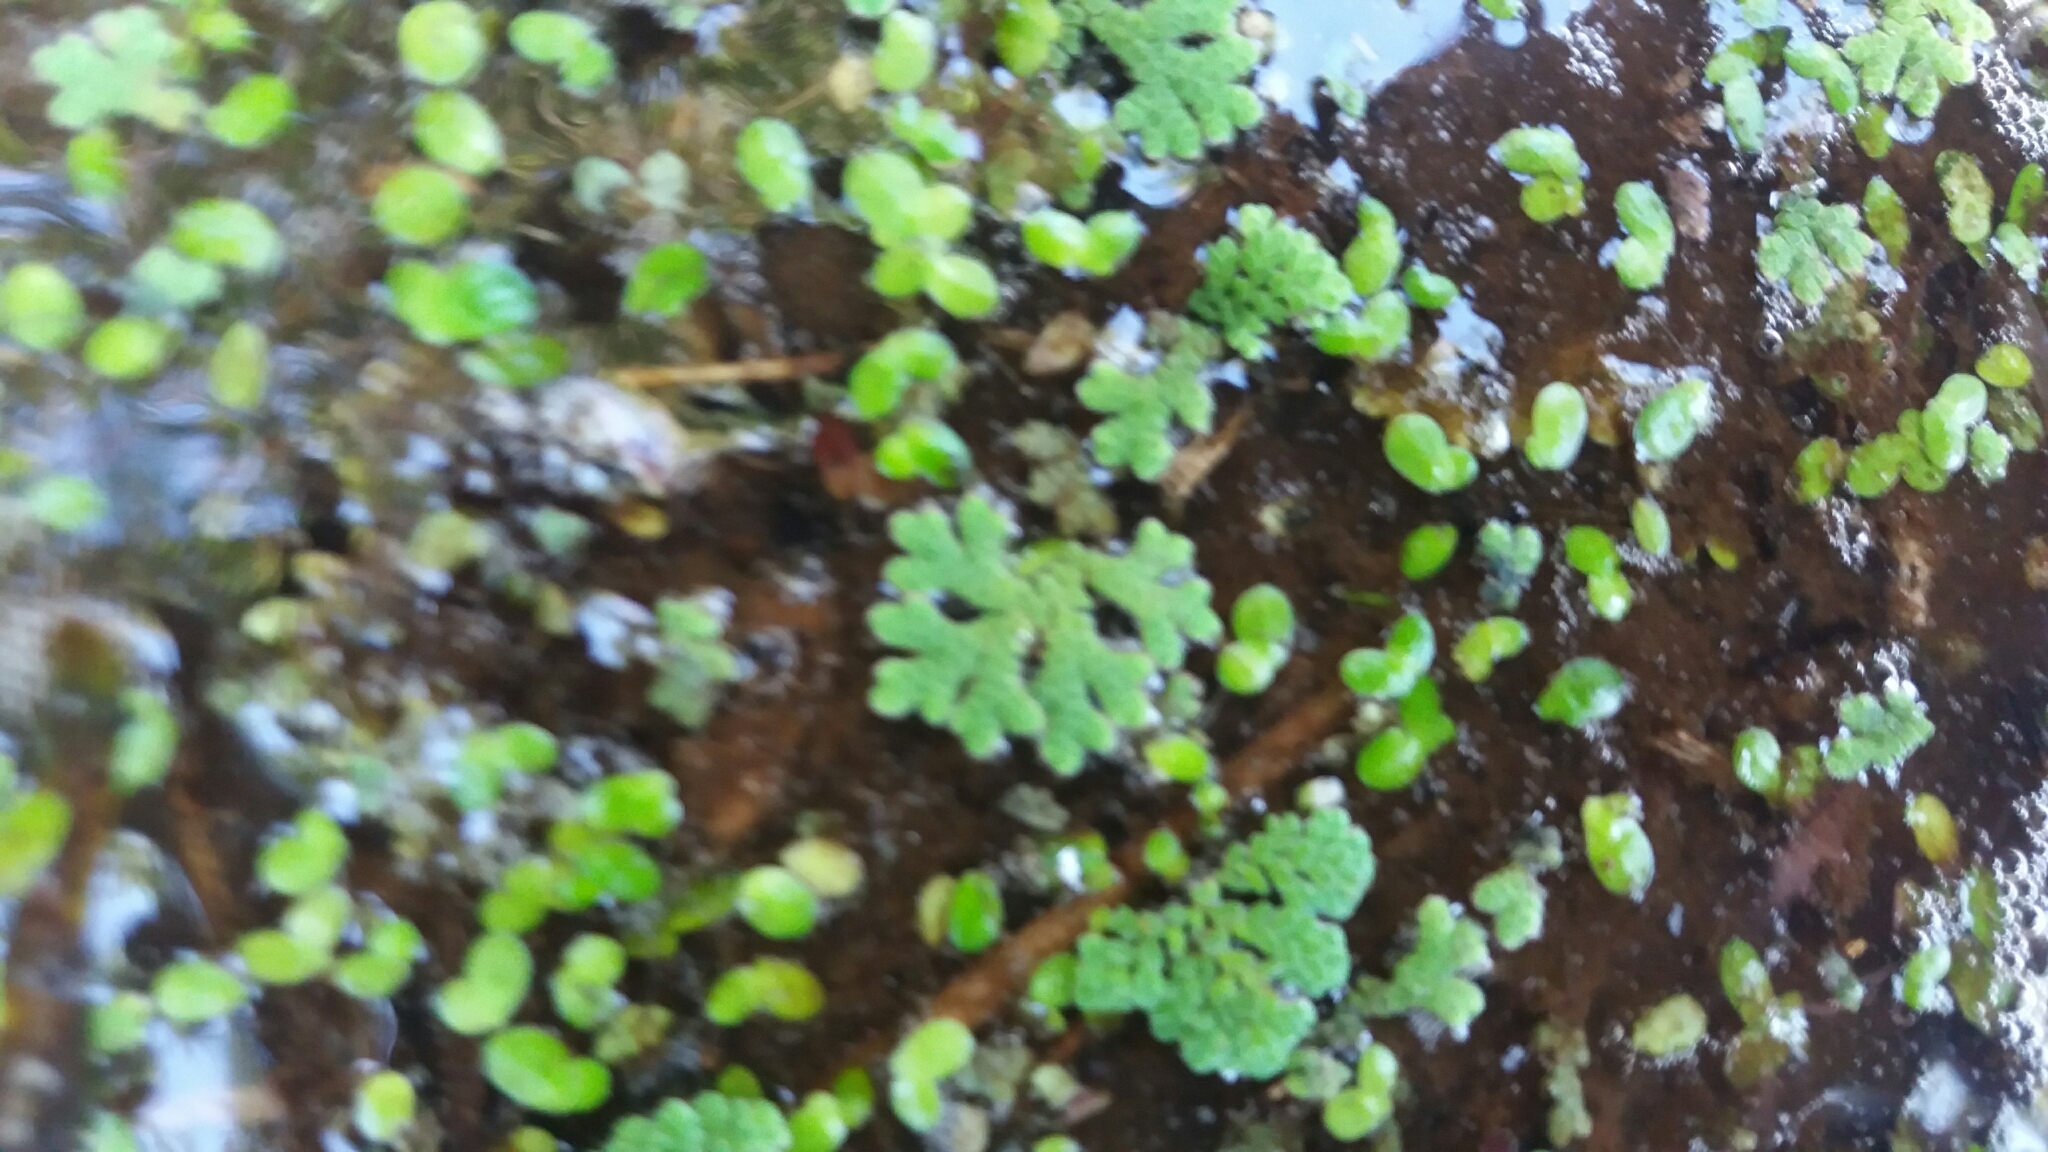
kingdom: Plantae
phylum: Tracheophyta
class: Polypodiopsida
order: Salviniales
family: Salviniaceae
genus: Azolla
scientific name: Azolla rubra
